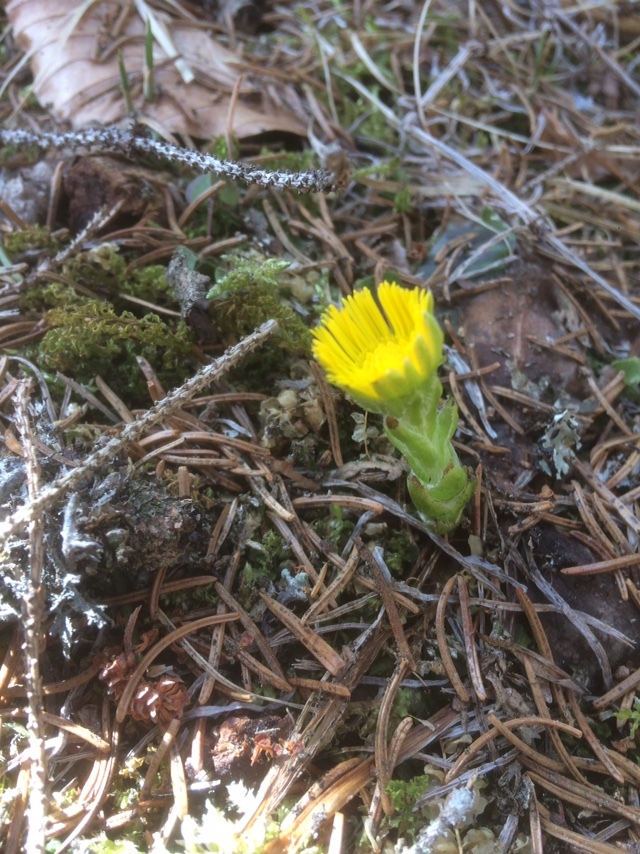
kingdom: Plantae
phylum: Tracheophyta
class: Magnoliopsida
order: Asterales
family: Asteraceae
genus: Tussilago
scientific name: Tussilago farfara
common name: Coltsfoot
